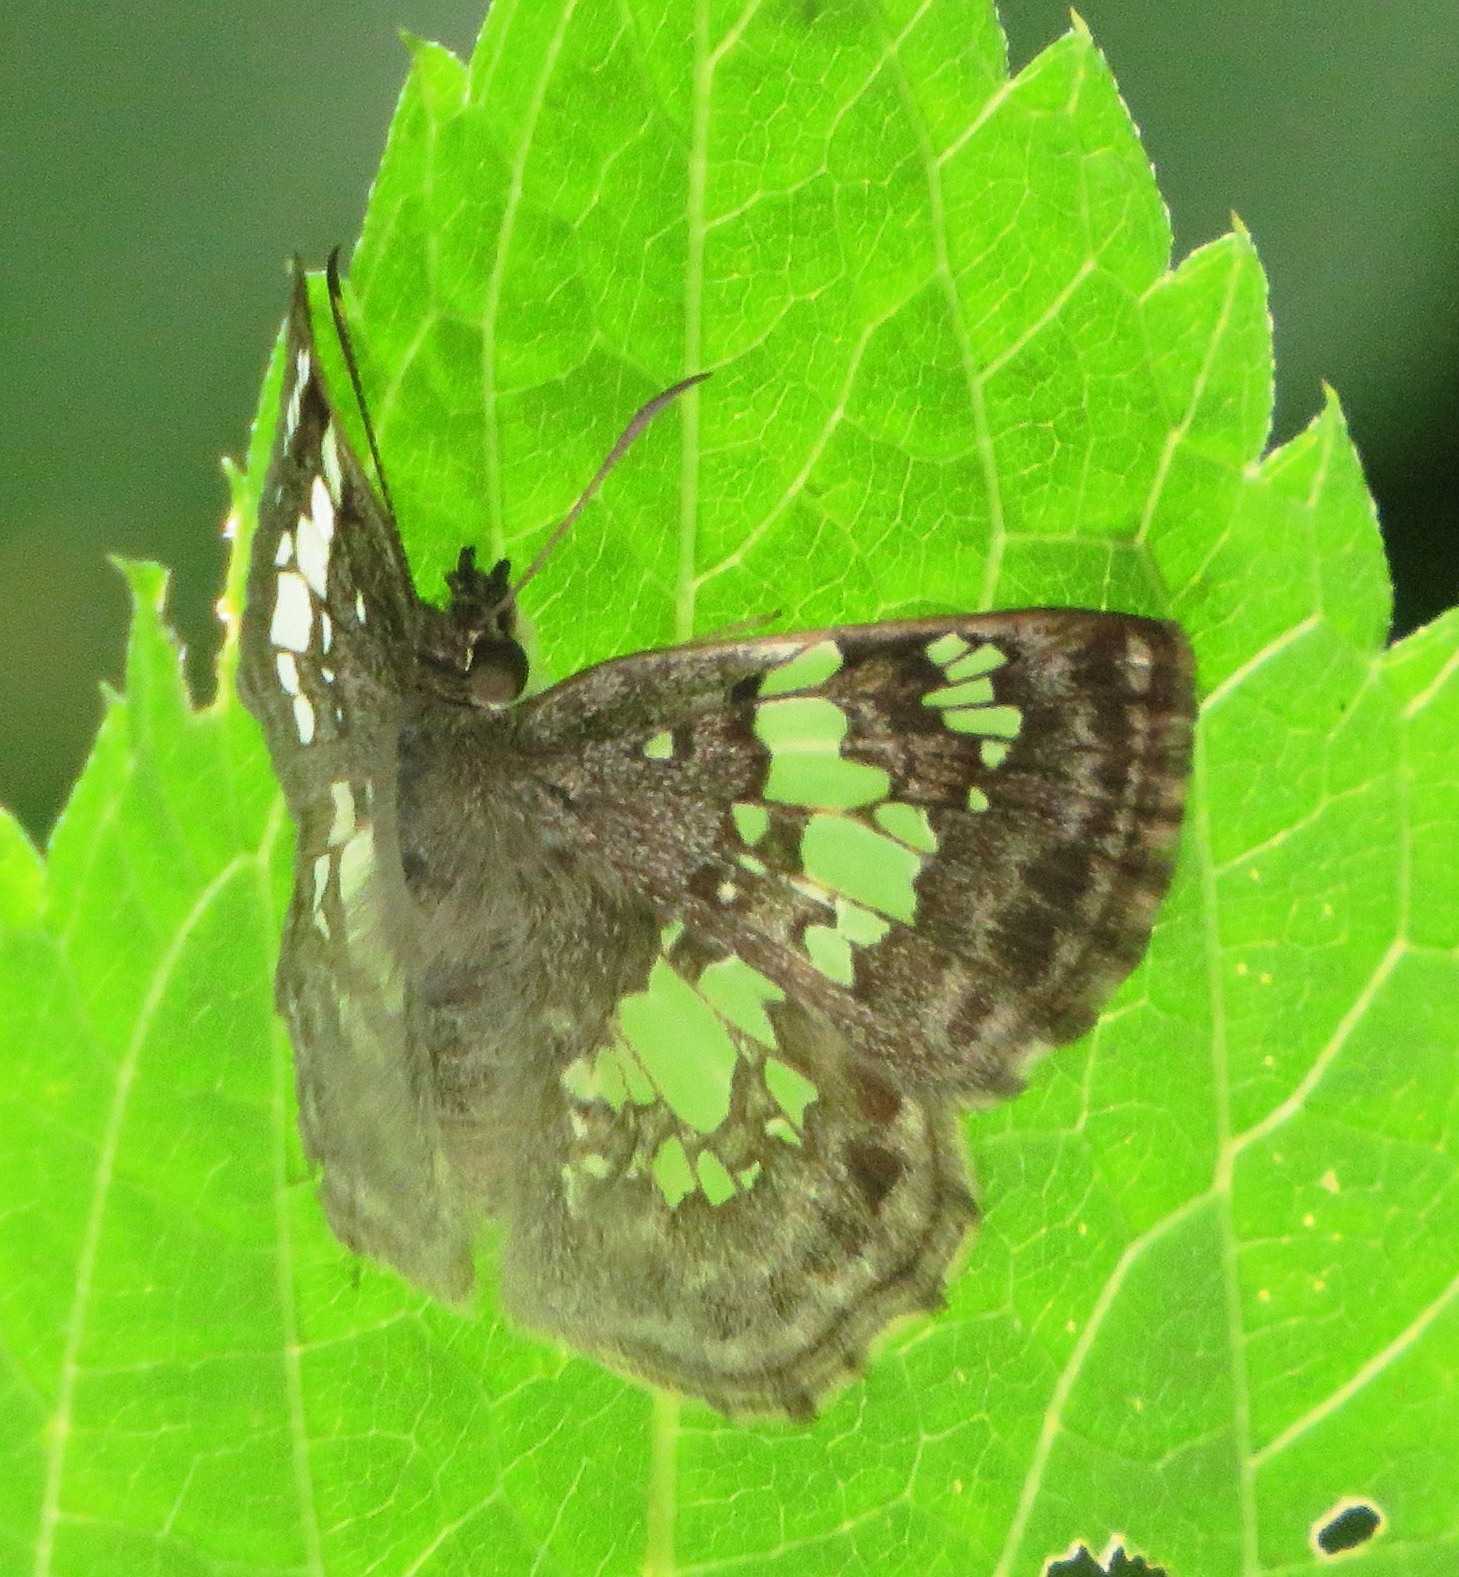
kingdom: Animalia
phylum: Arthropoda
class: Insecta
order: Lepidoptera
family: Hesperiidae
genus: Xenophanes
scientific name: Xenophanes tryxus
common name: Glassy-winged skipper
